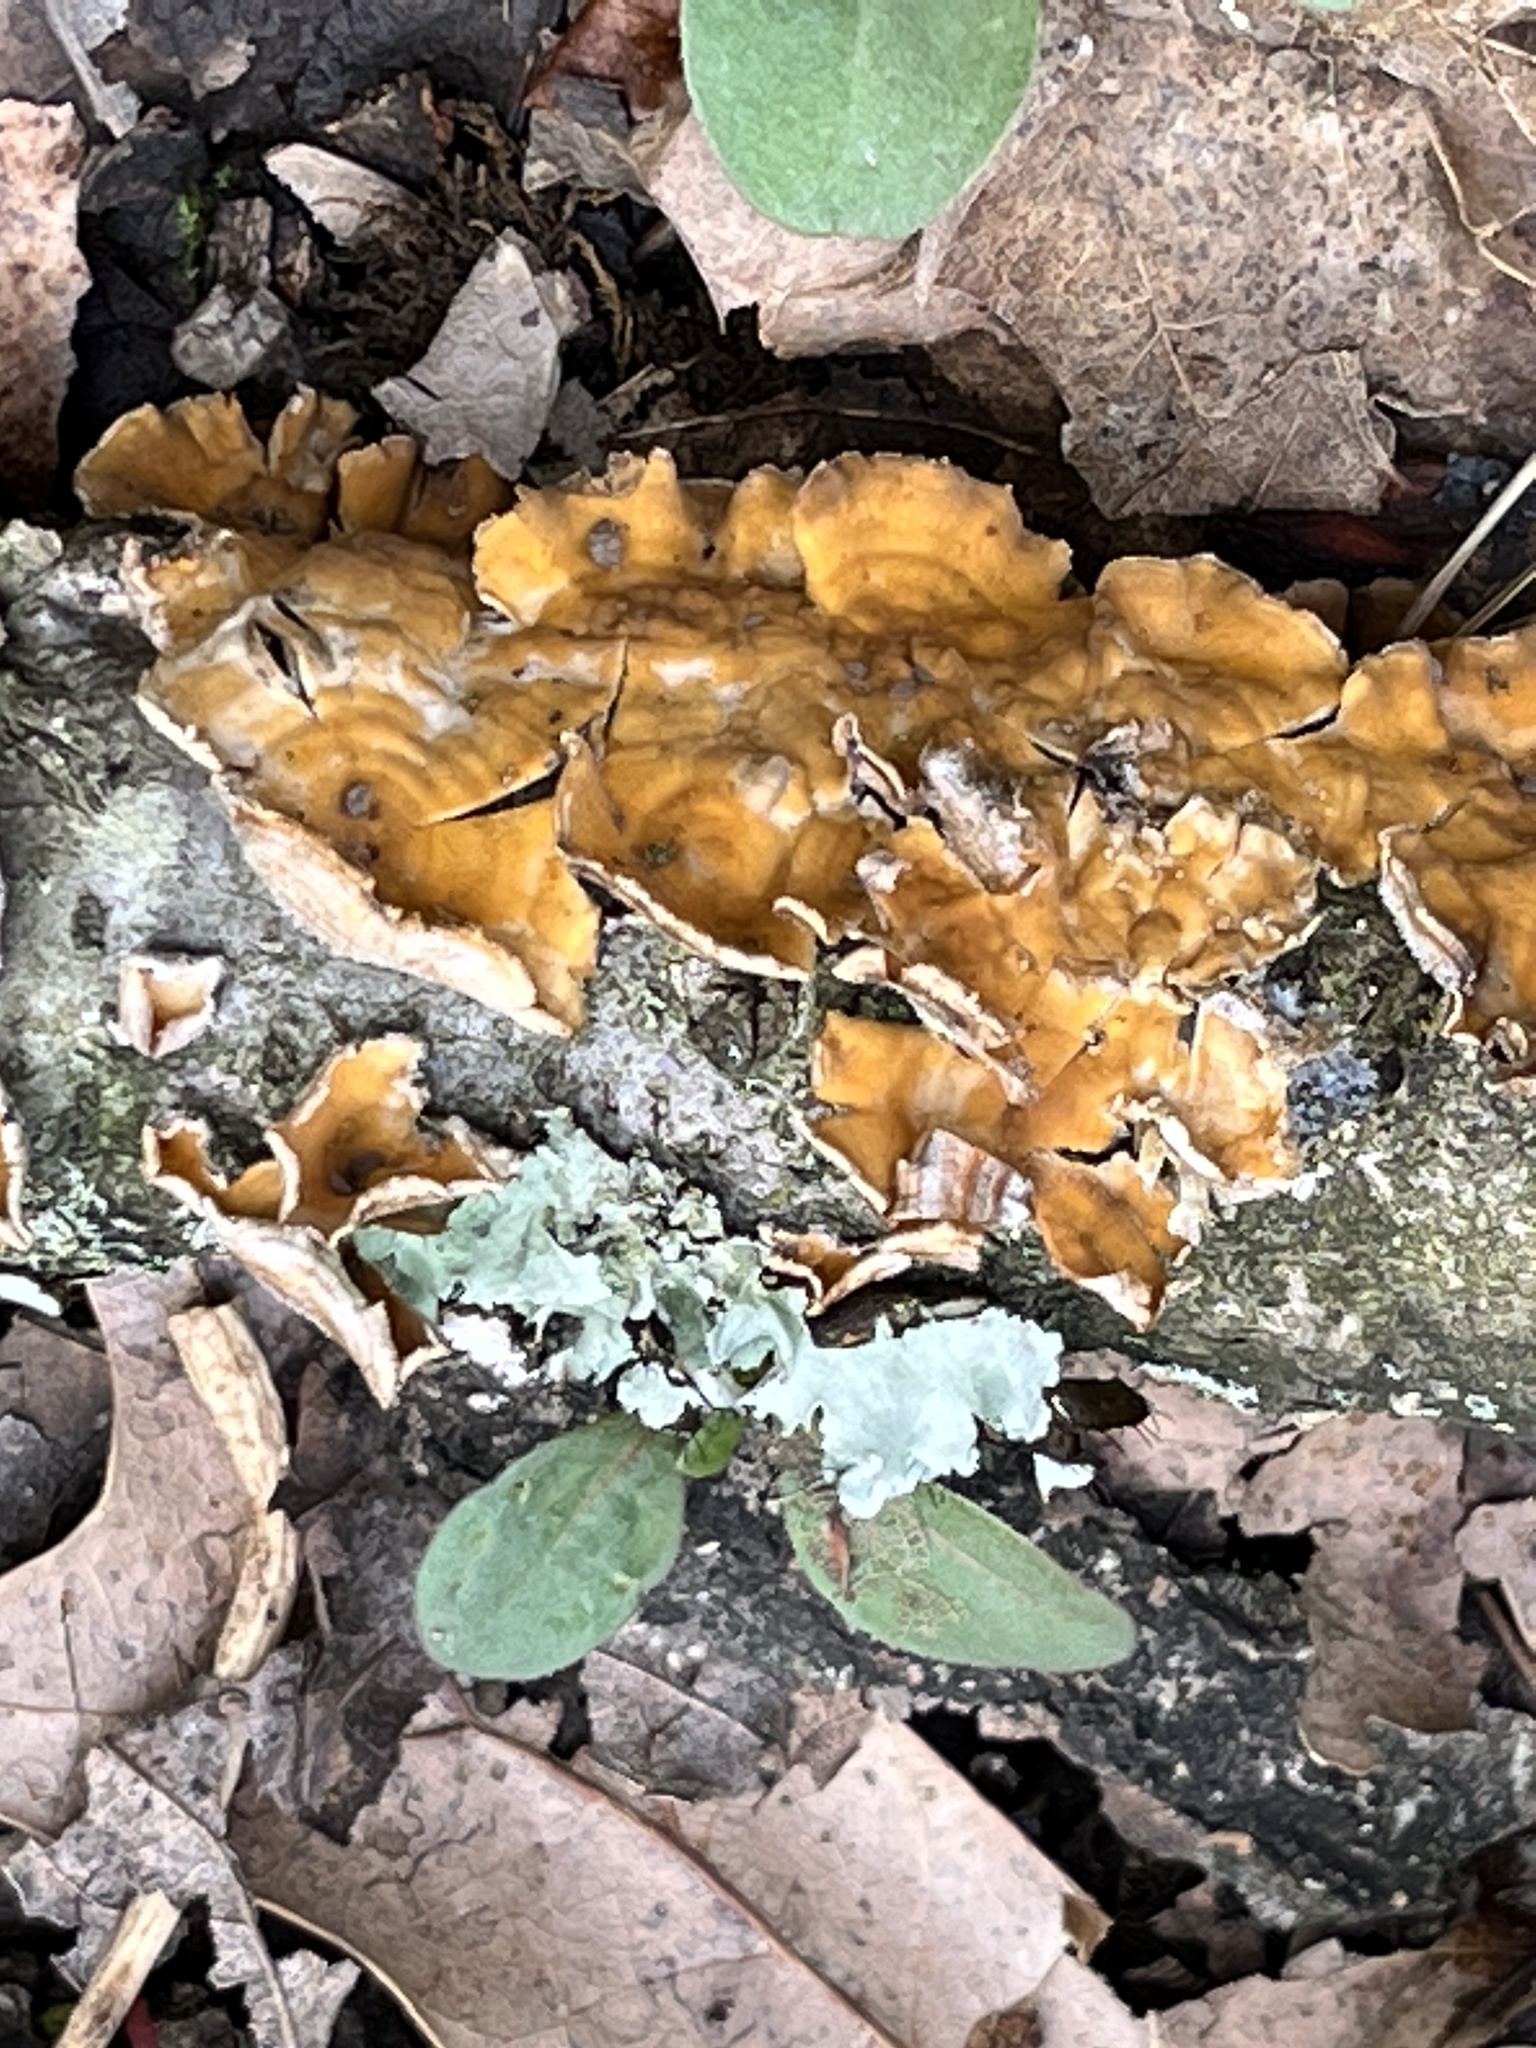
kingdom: Fungi
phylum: Basidiomycota
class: Agaricomycetes
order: Russulales
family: Stereaceae
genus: Stereum
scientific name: Stereum complicatum
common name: Crowded parchment
